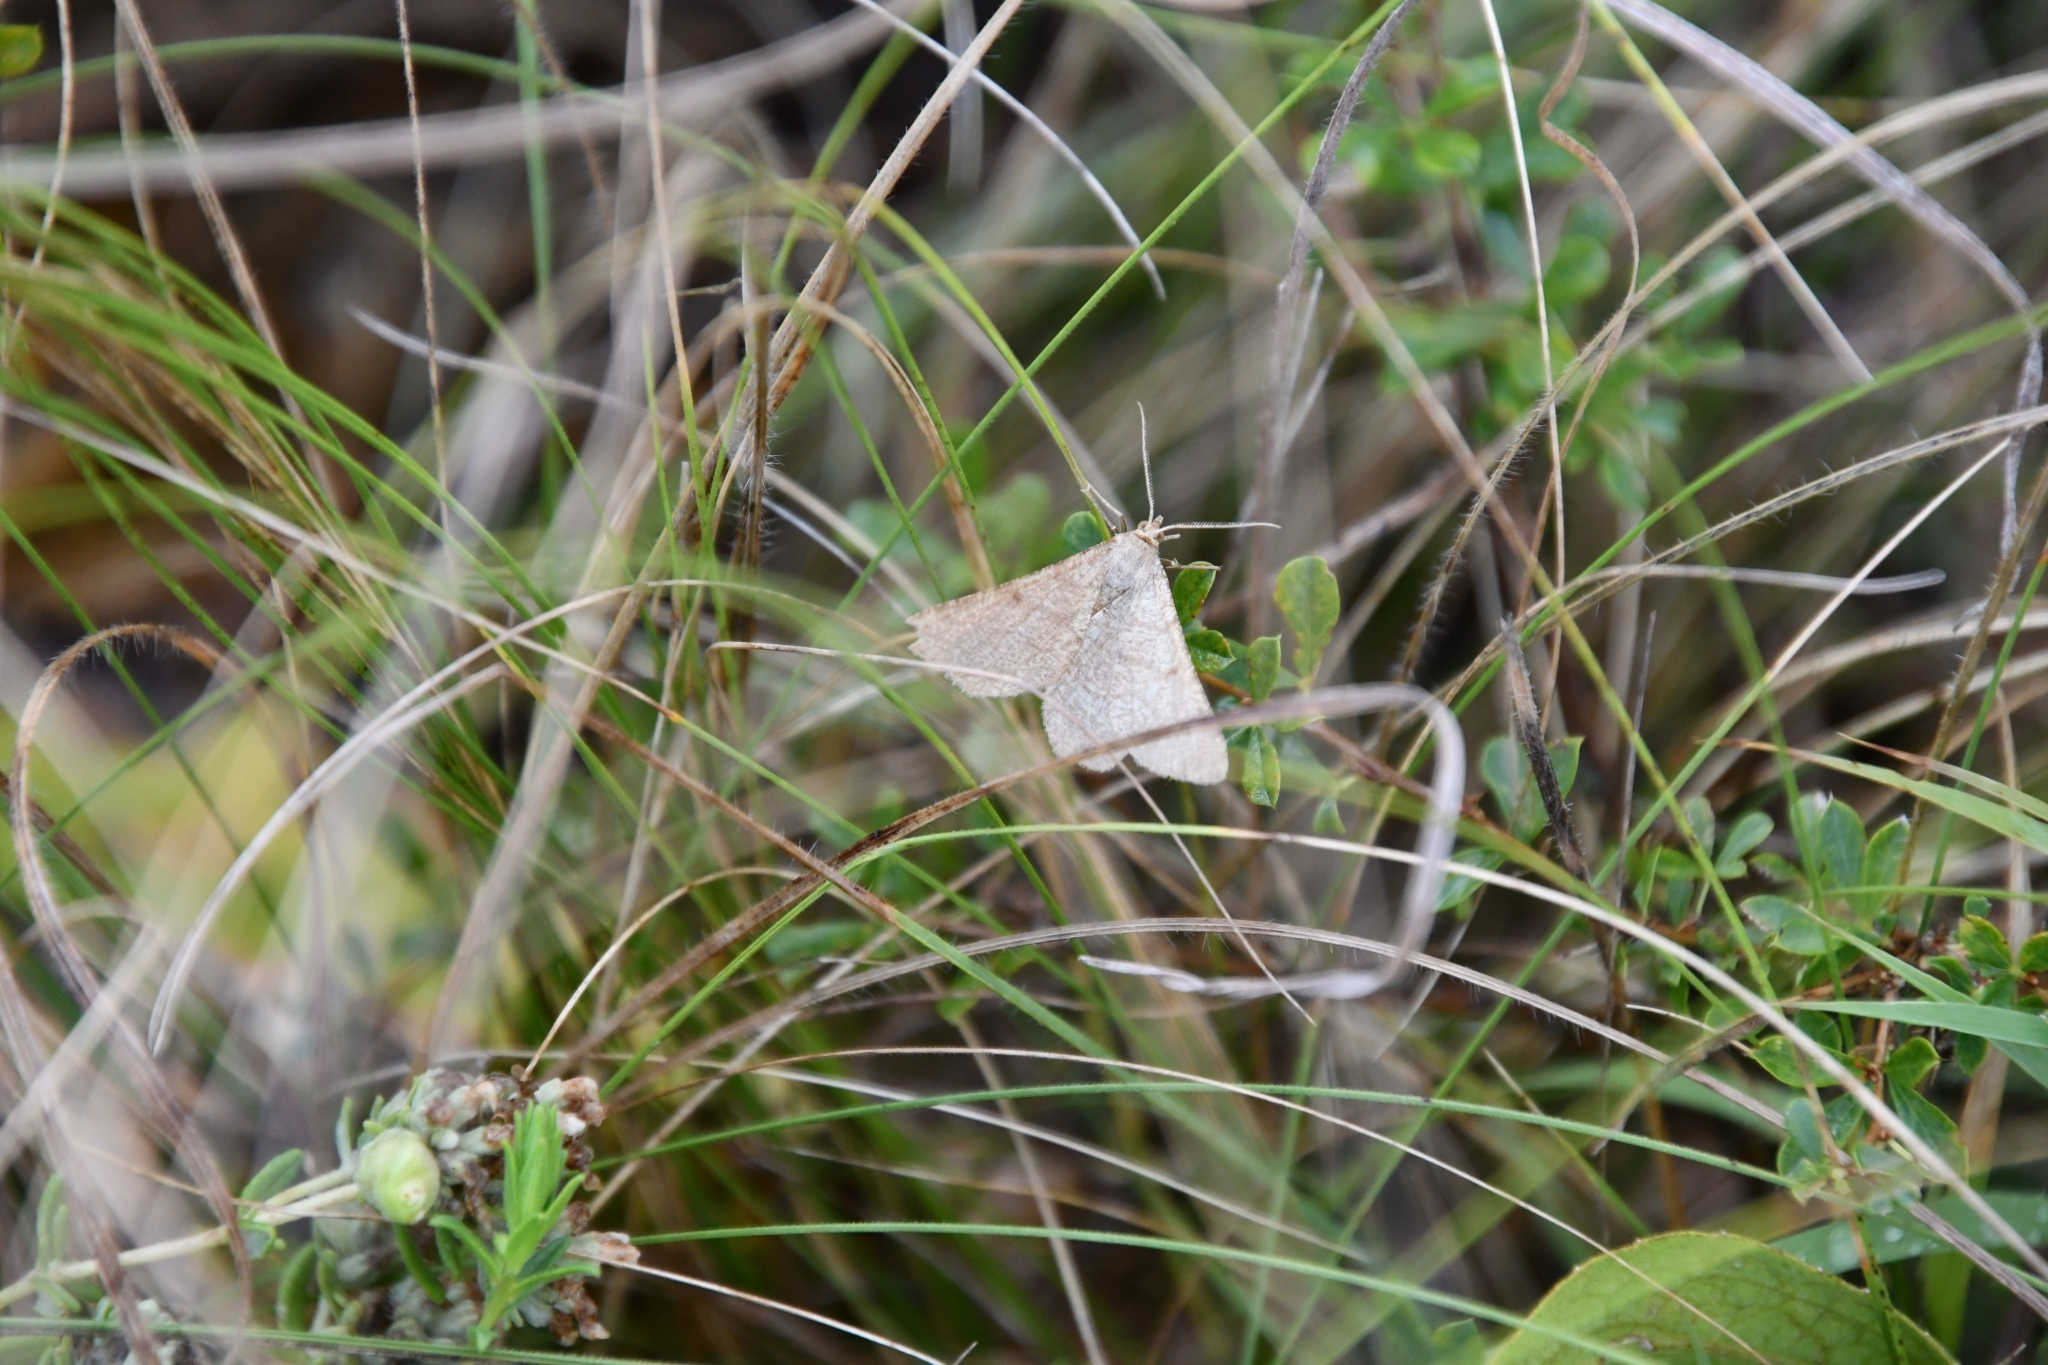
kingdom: Animalia
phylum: Arthropoda
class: Insecta
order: Lepidoptera
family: Geometridae
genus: Tephrina
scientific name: Tephrina murinaria
